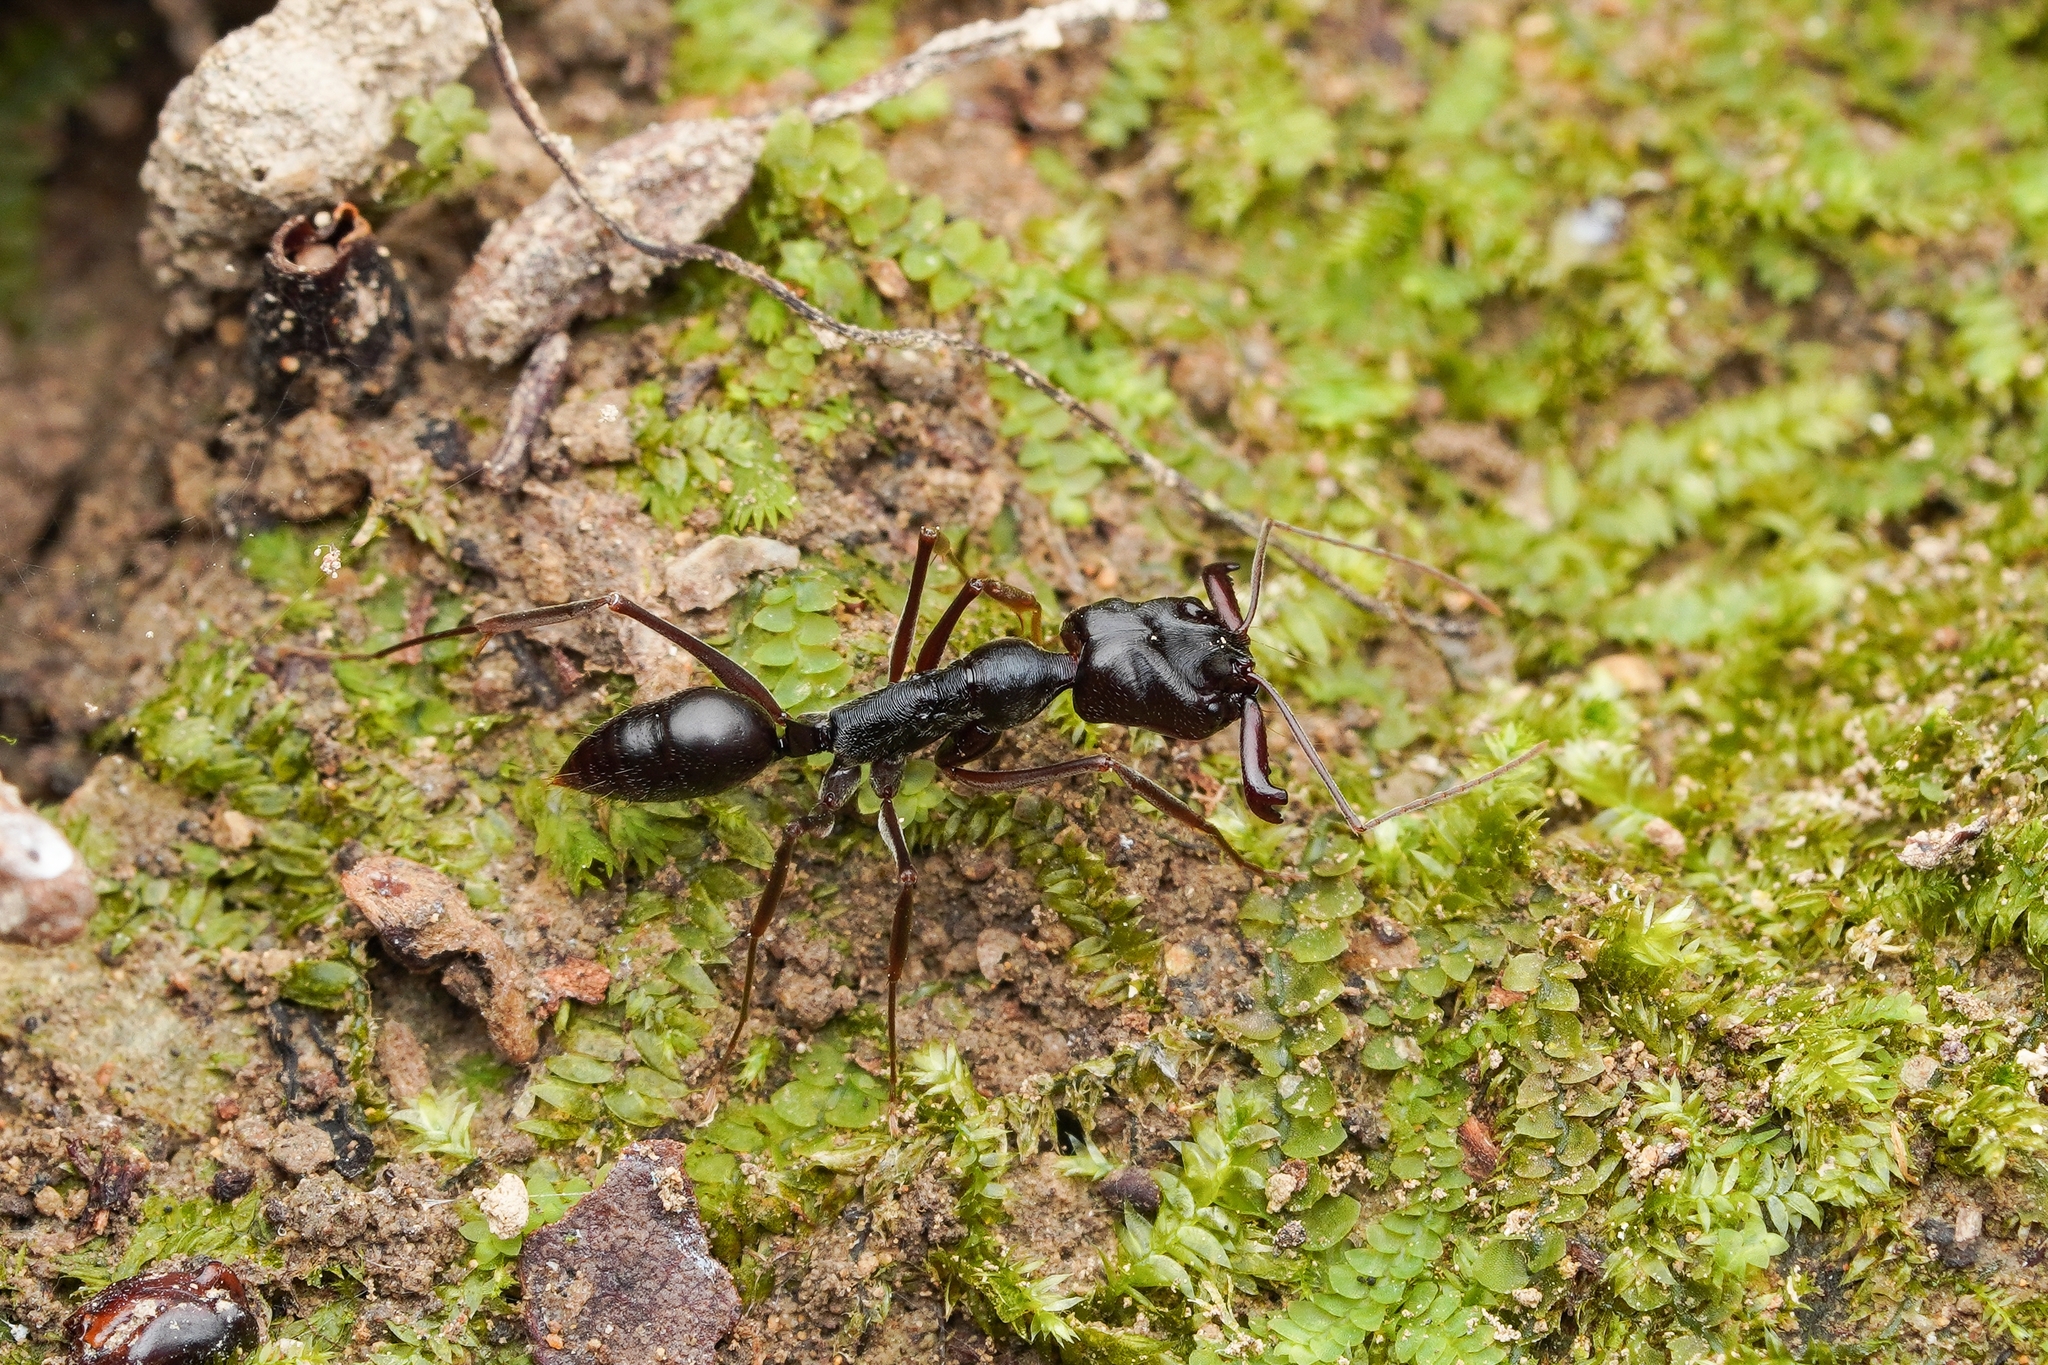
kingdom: Animalia
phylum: Arthropoda
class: Insecta
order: Hymenoptera
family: Formicidae
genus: Odontomachus
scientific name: Odontomachus monticola
